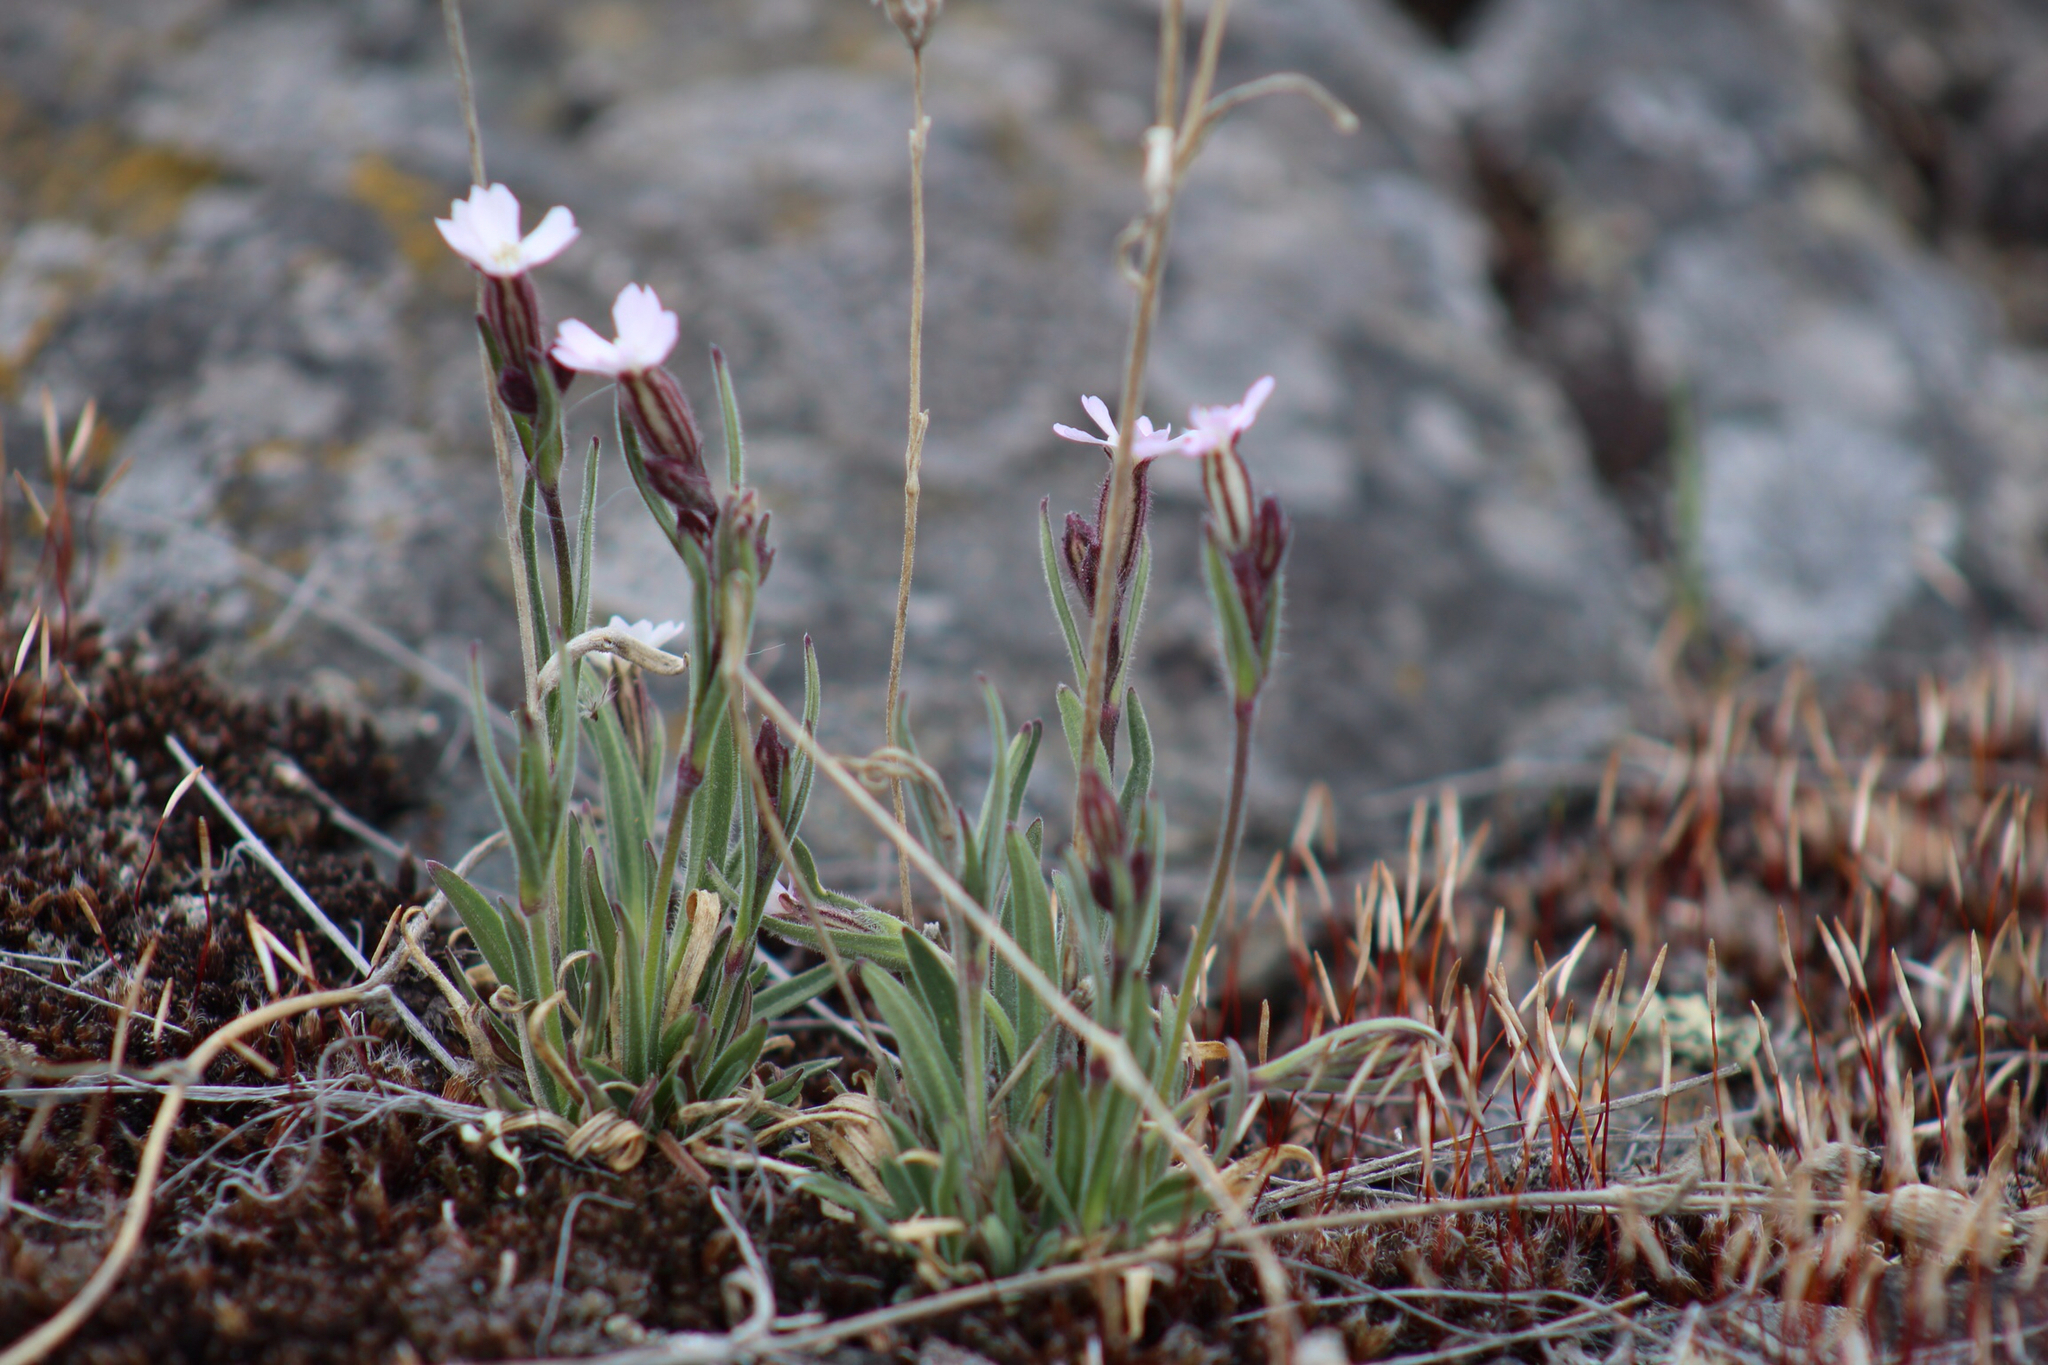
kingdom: Plantae
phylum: Tracheophyta
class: Magnoliopsida
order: Caryophyllales
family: Caryophyllaceae
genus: Silene
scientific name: Silene involucrata
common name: Greater arctic campion
